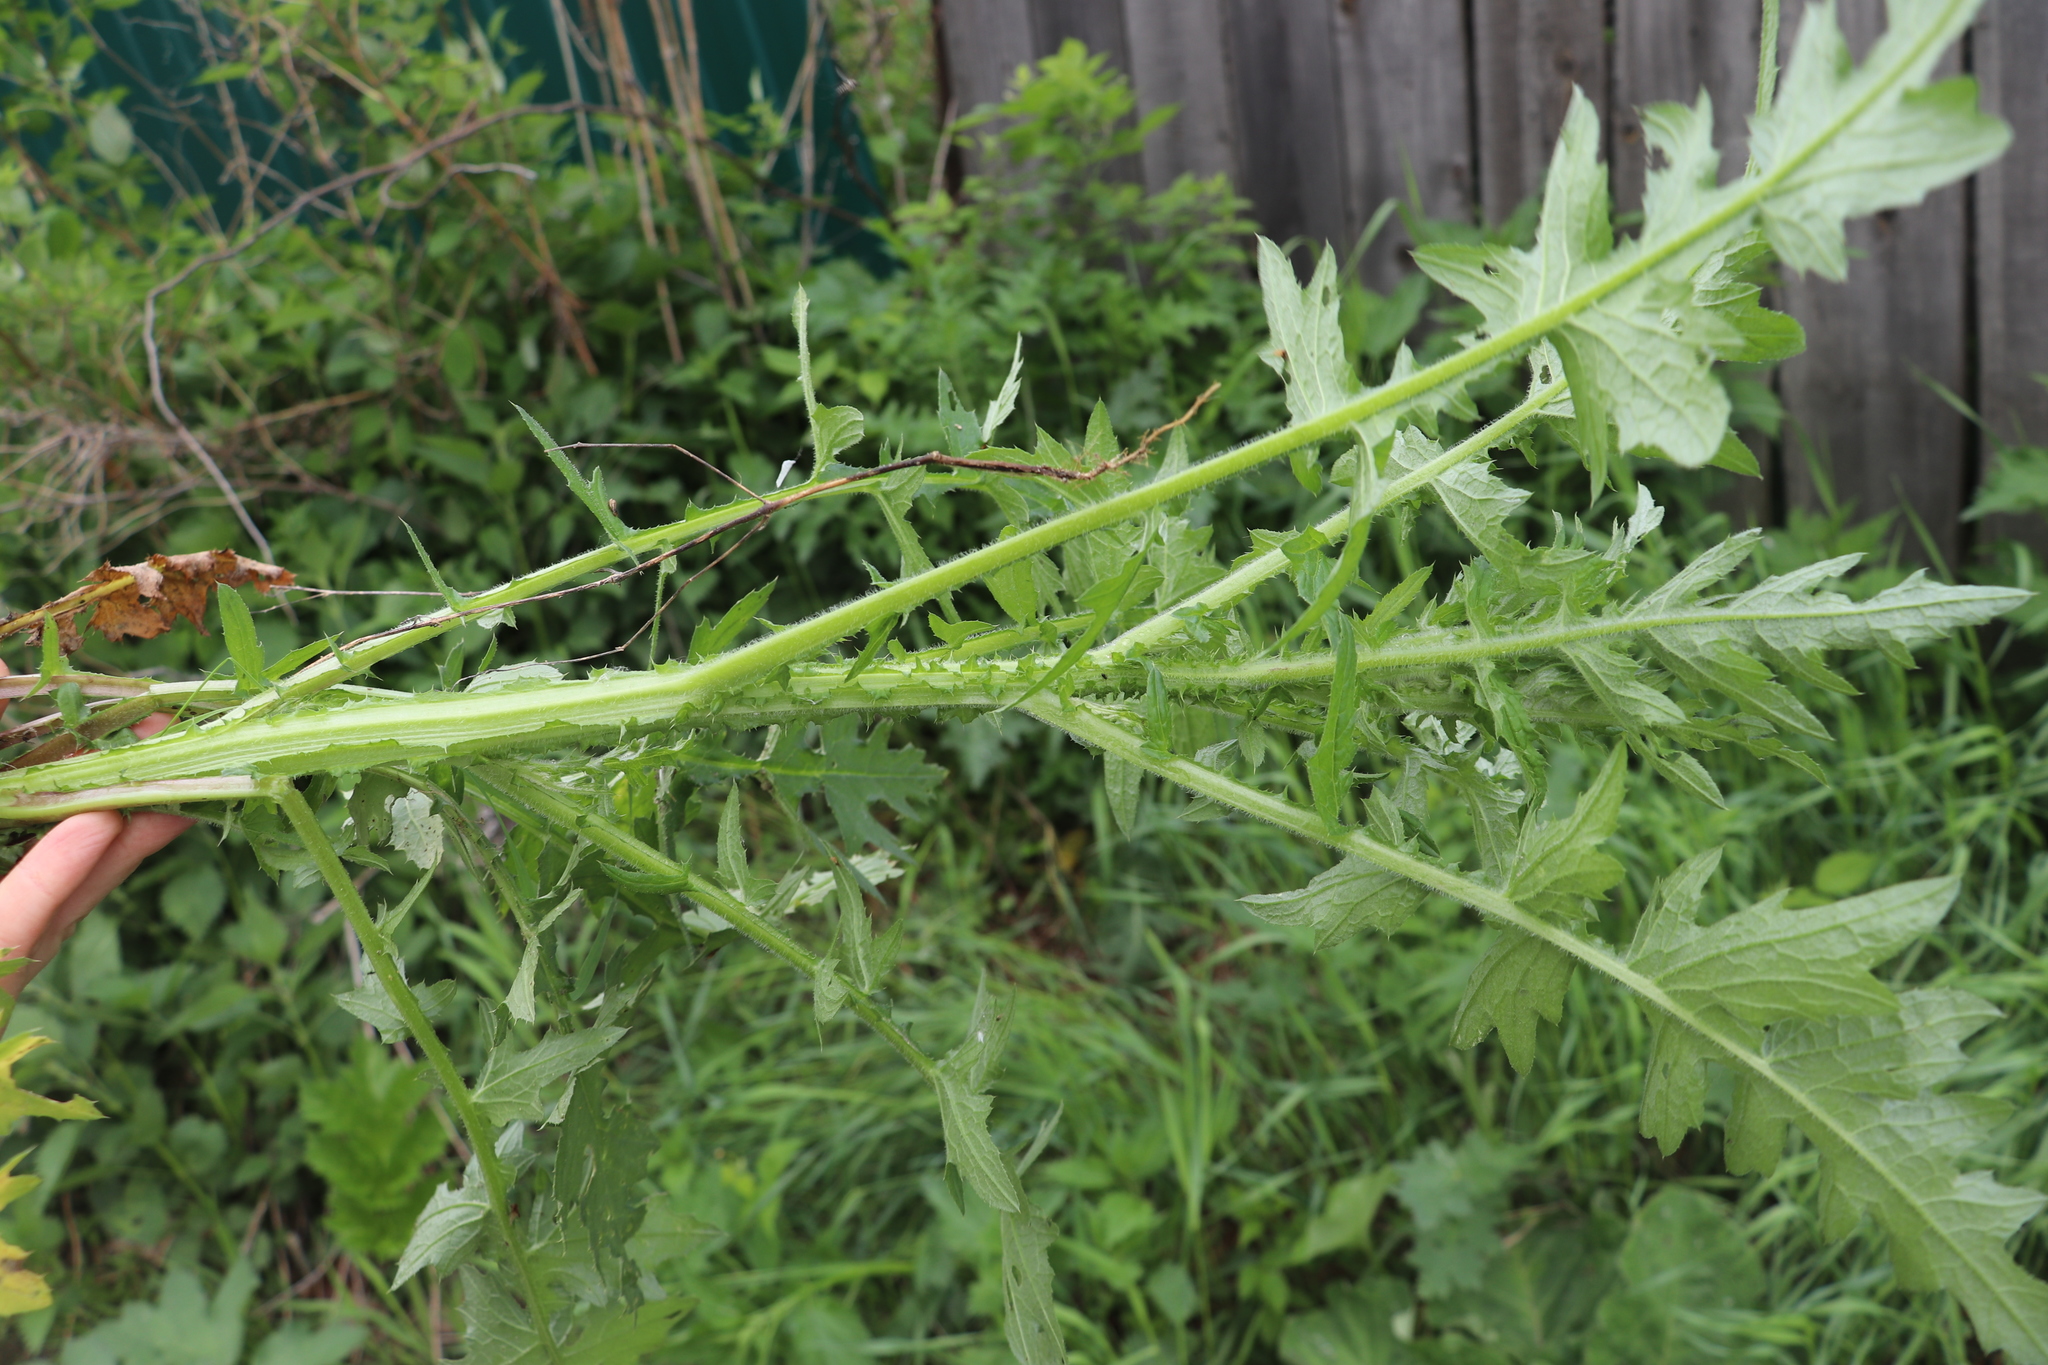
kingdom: Plantae
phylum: Tracheophyta
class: Magnoliopsida
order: Asterales
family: Asteraceae
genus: Carduus
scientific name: Carduus crispus
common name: Welted thistle
